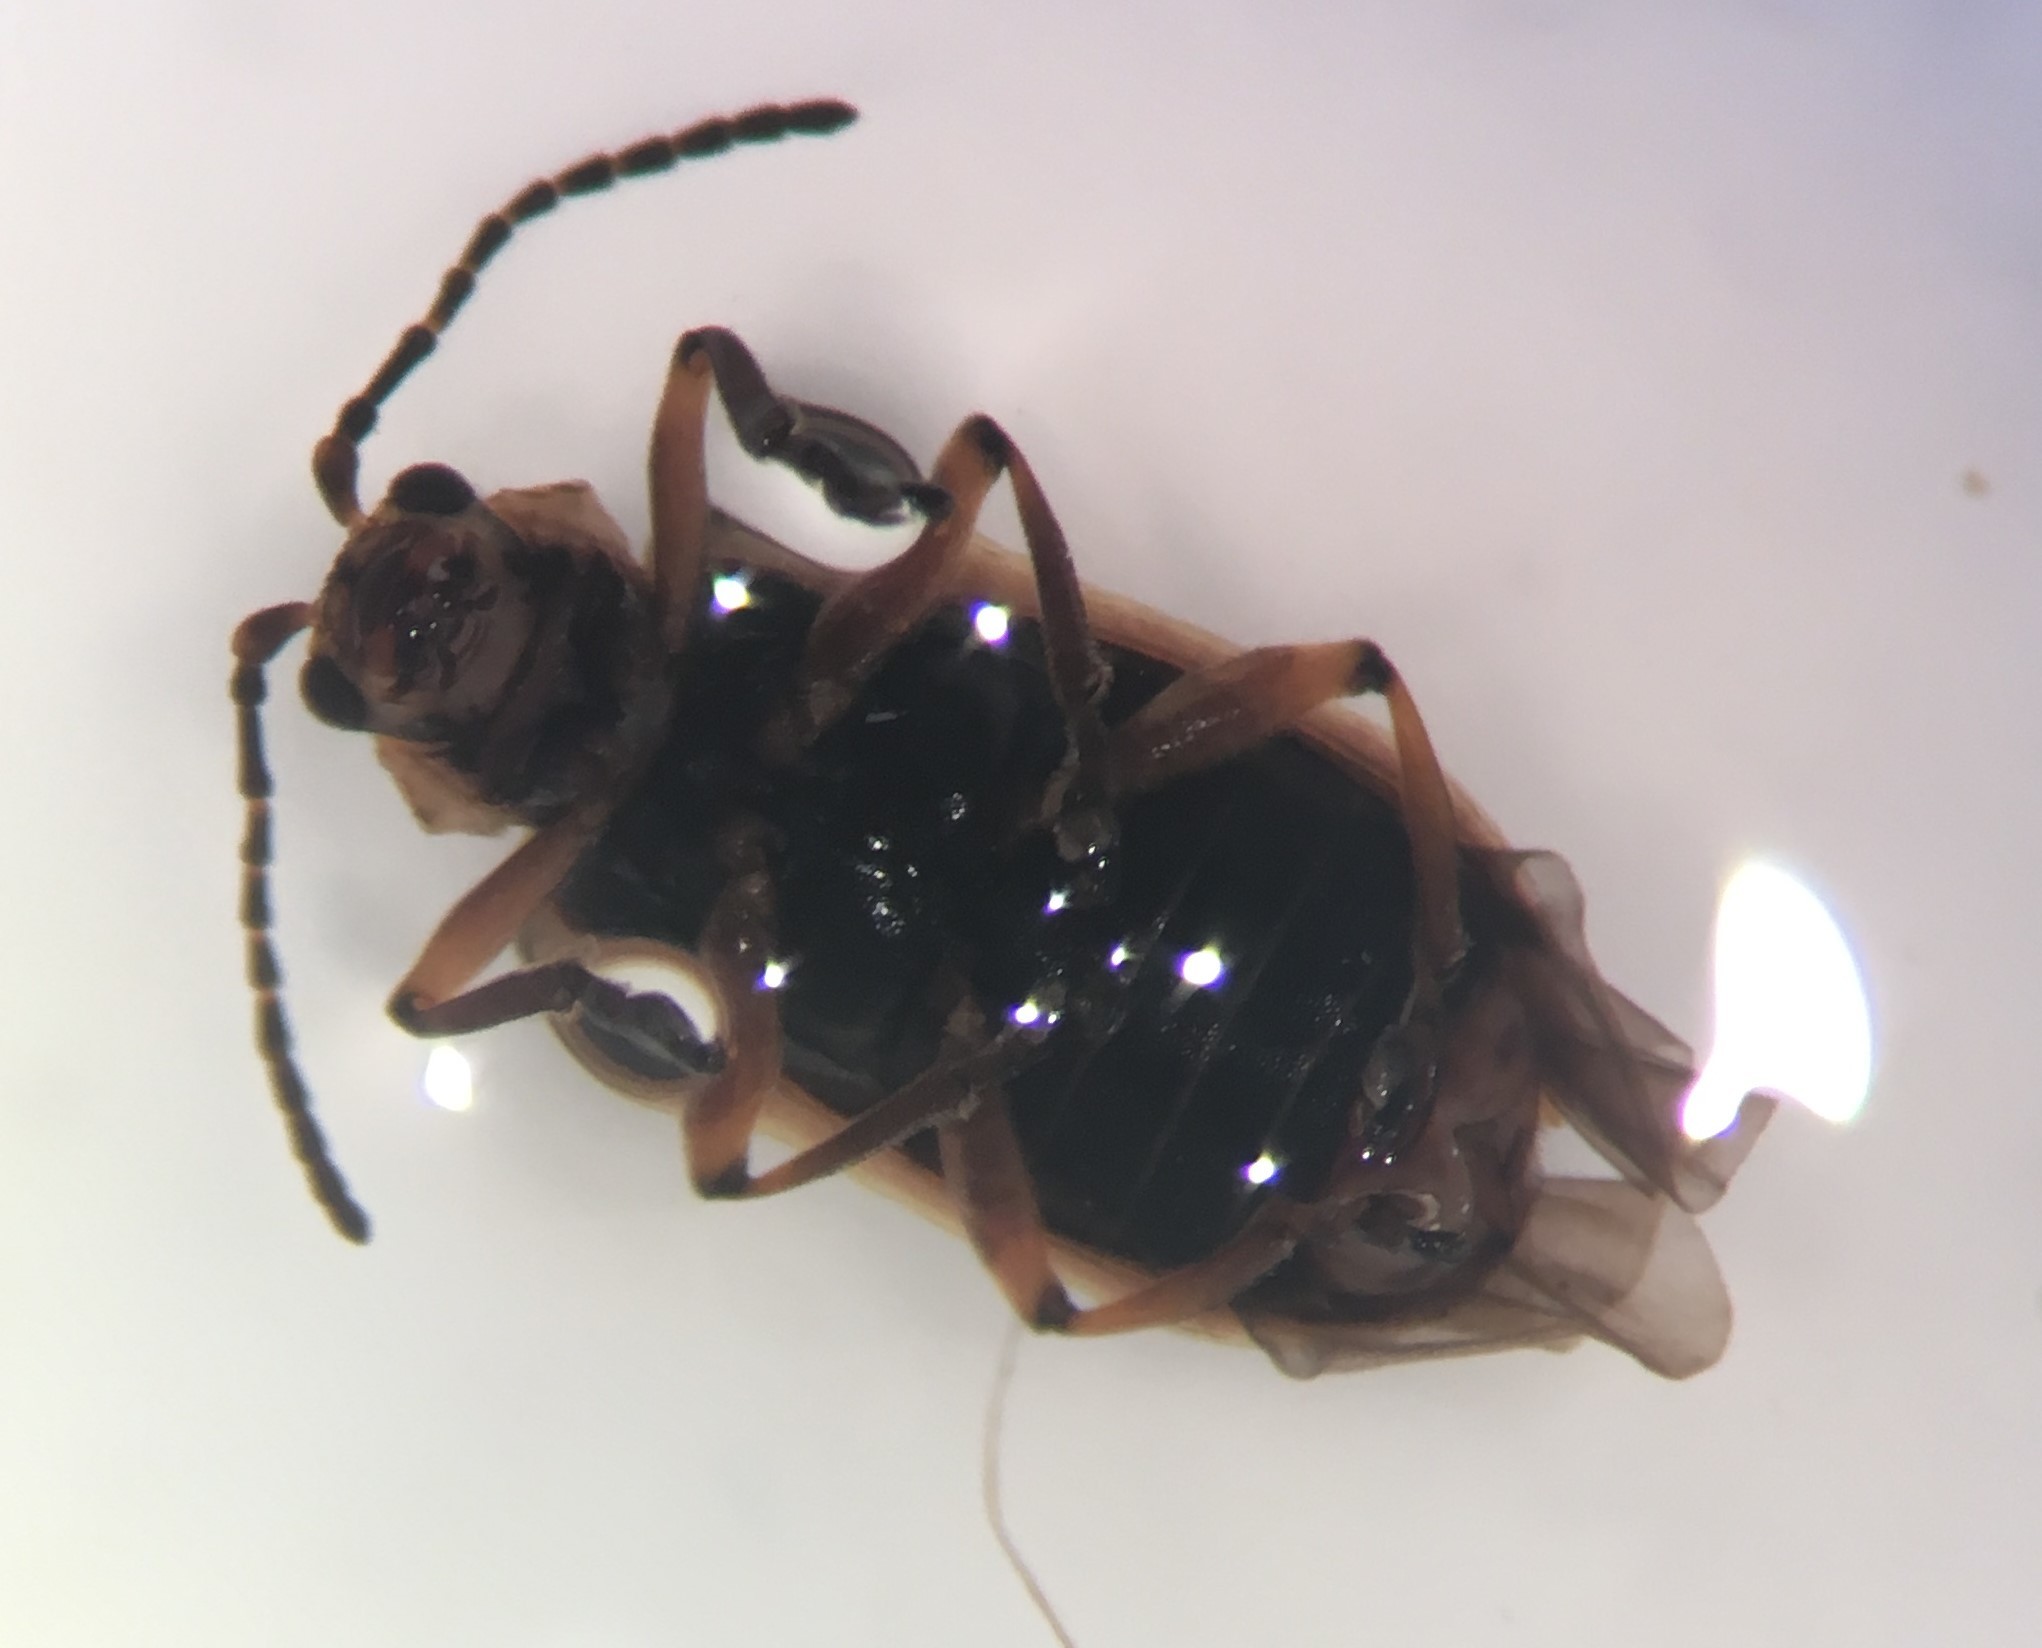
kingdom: Animalia
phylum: Arthropoda
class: Insecta
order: Coleoptera
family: Chrysomelidae
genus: Galerucella
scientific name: Galerucella nymphaeae
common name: Leaf beetle
